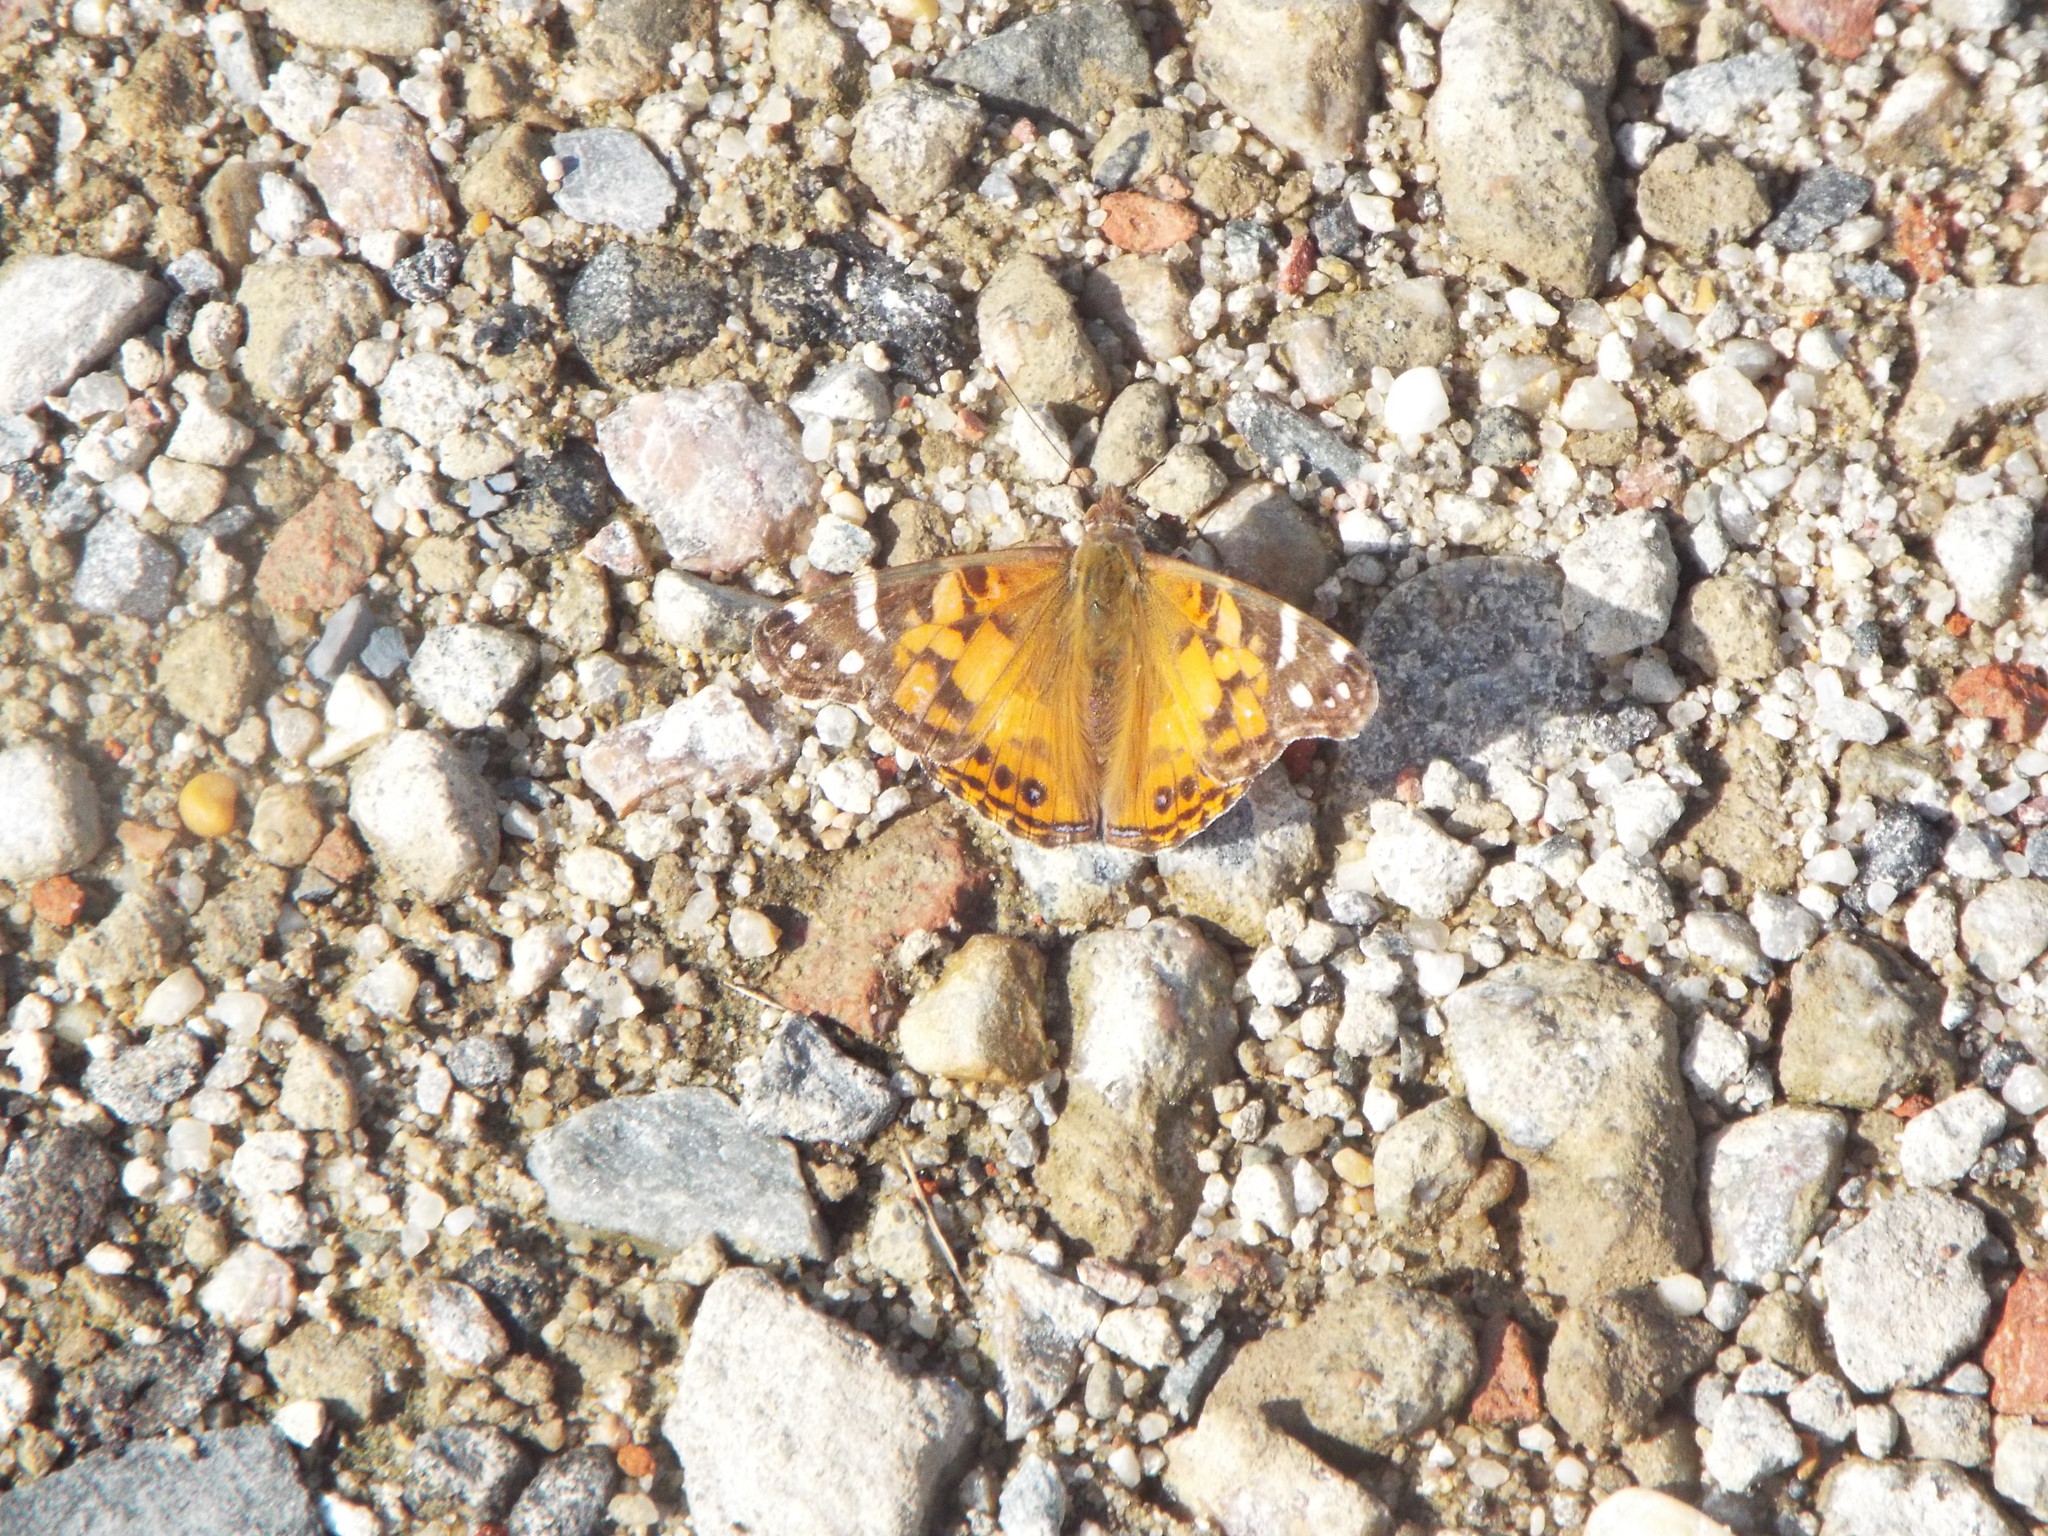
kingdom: Animalia
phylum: Arthropoda
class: Insecta
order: Lepidoptera
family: Nymphalidae
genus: Vanessa
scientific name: Vanessa virginiensis
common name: American lady
